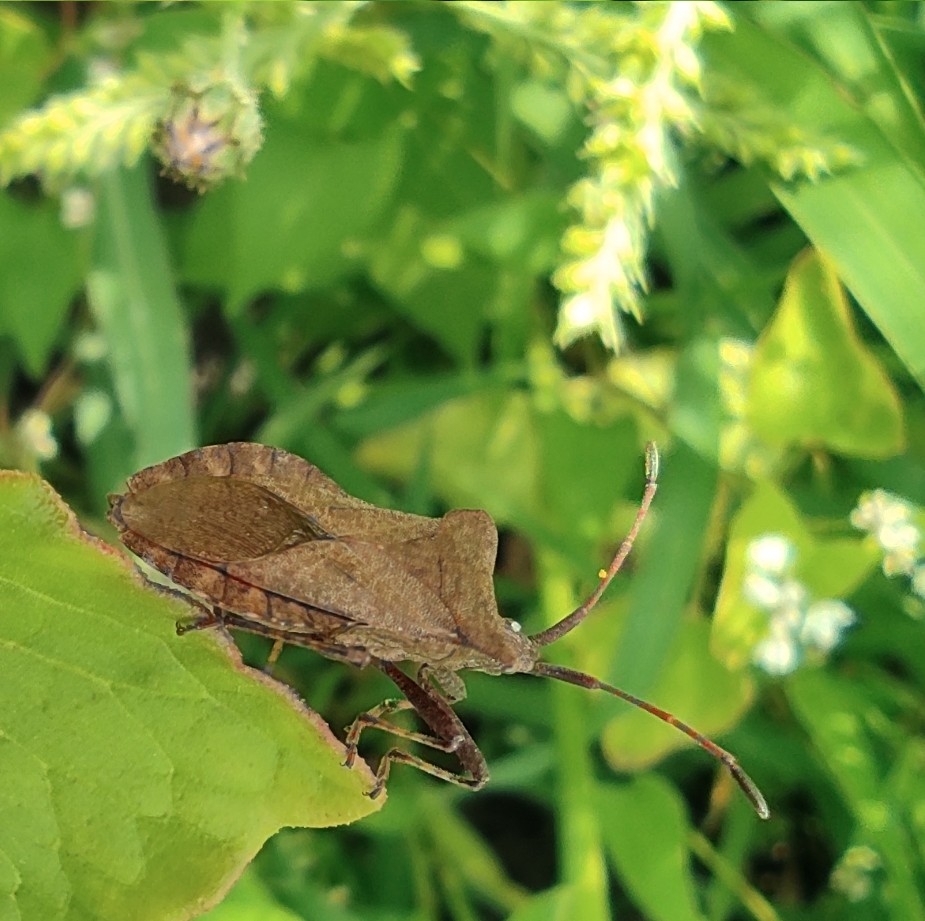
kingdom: Animalia
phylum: Arthropoda
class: Insecta
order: Hemiptera
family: Coreidae
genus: Coreus
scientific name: Coreus marginatus
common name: Dock bug
